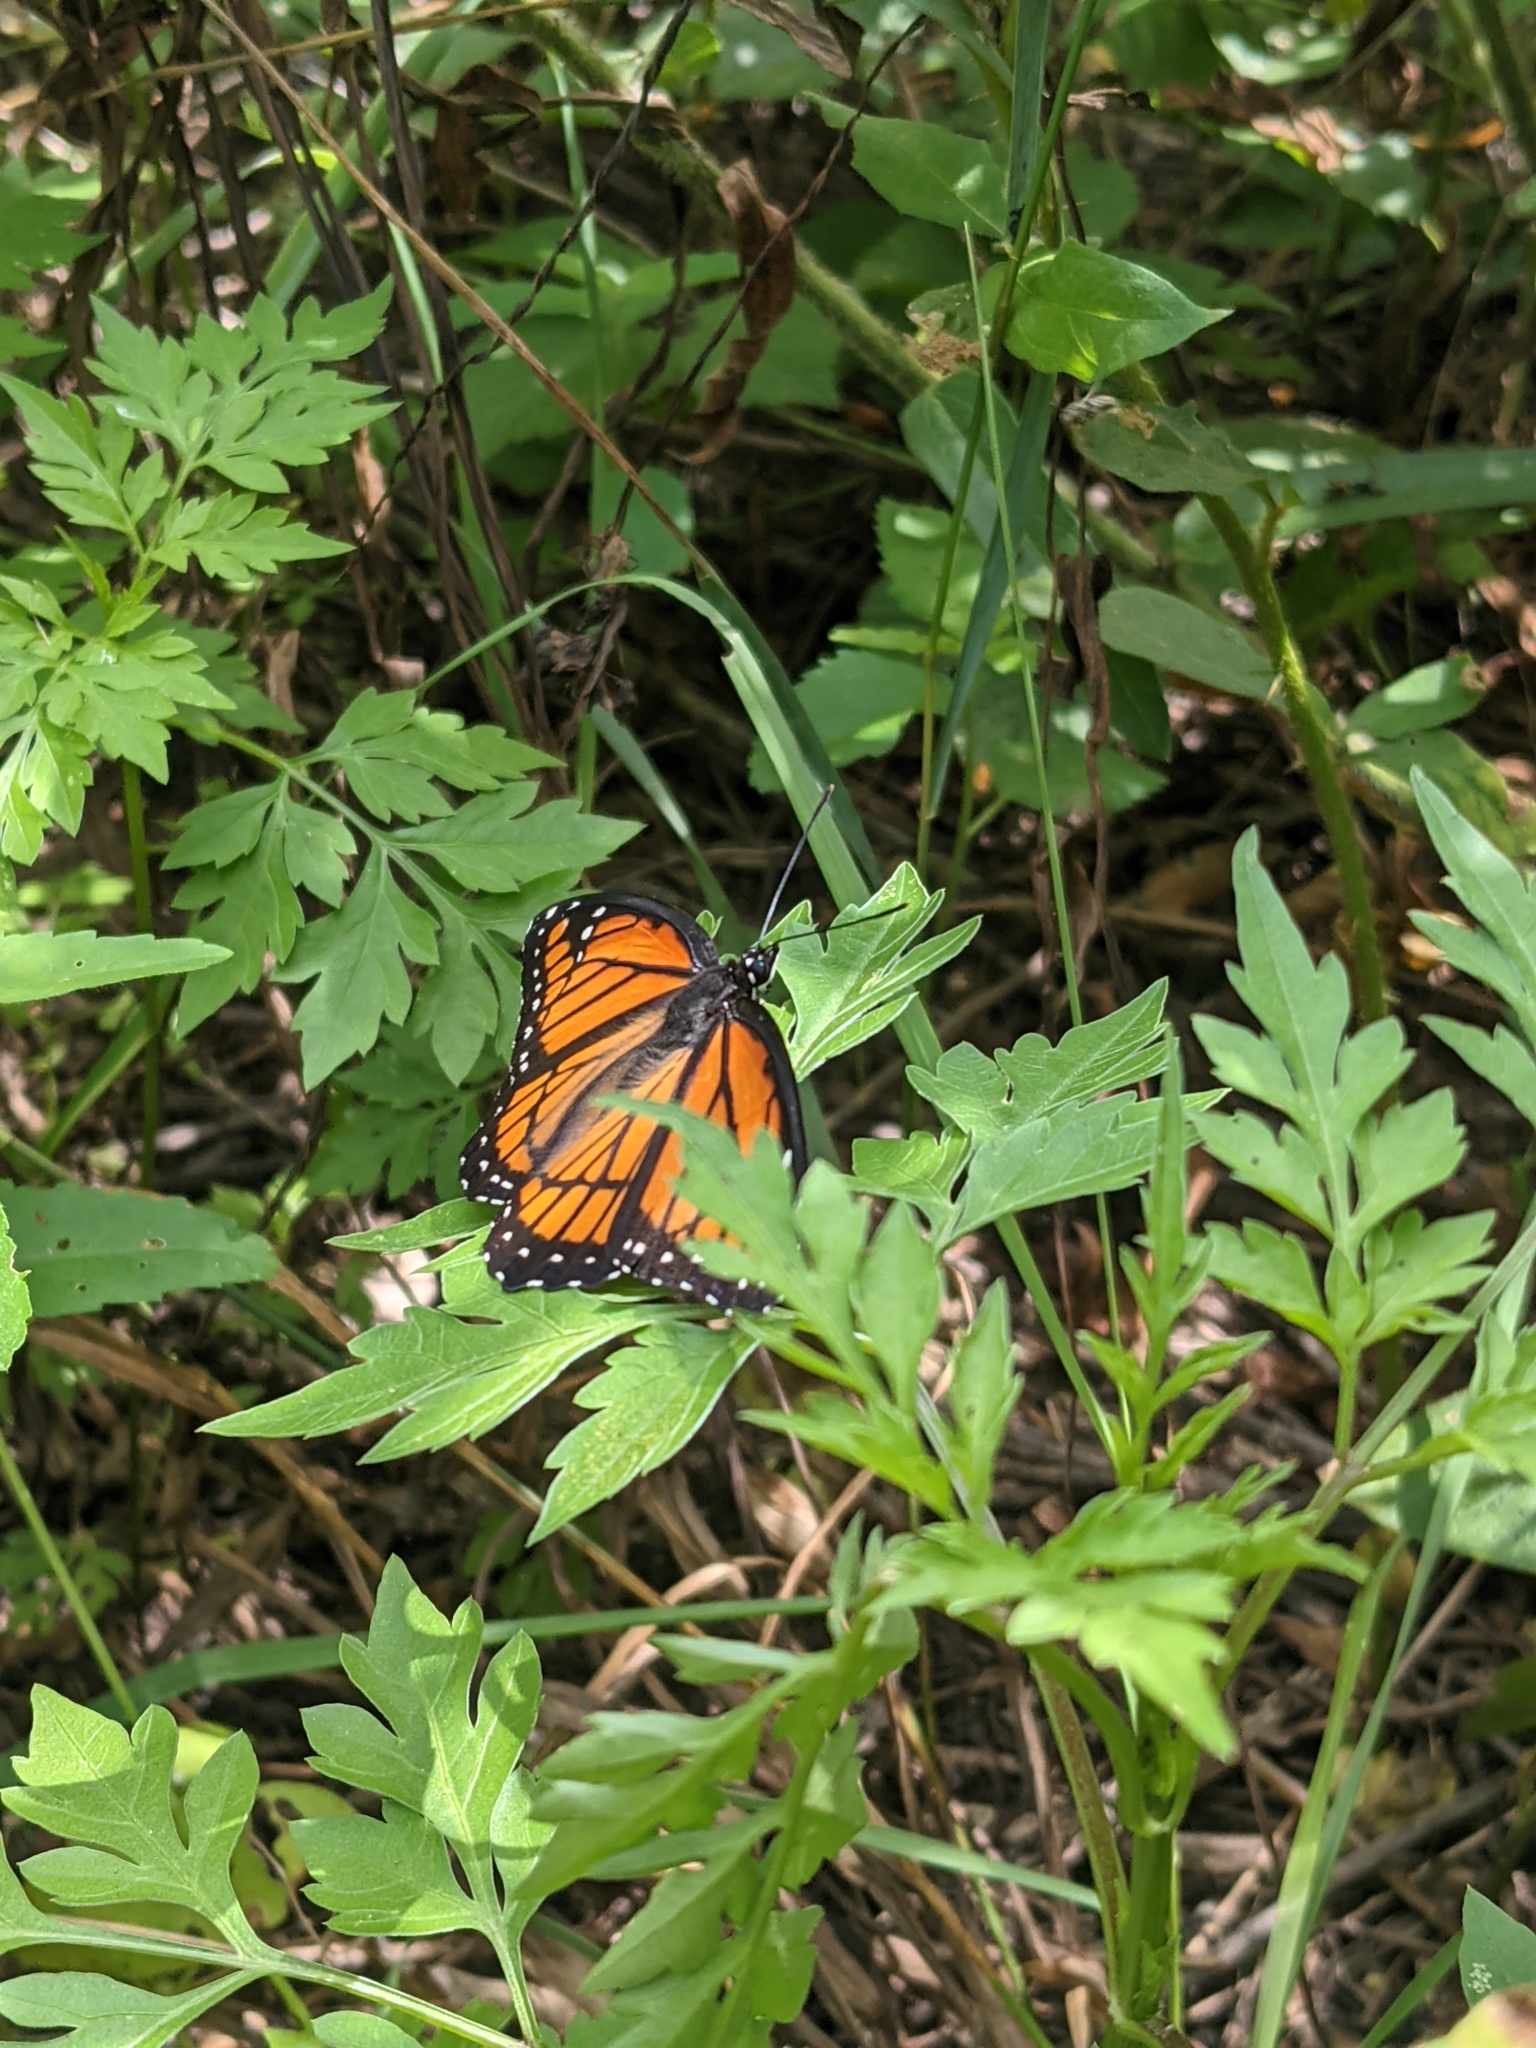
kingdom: Animalia
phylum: Arthropoda
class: Insecta
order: Lepidoptera
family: Nymphalidae
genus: Limenitis
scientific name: Limenitis archippus
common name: Viceroy
